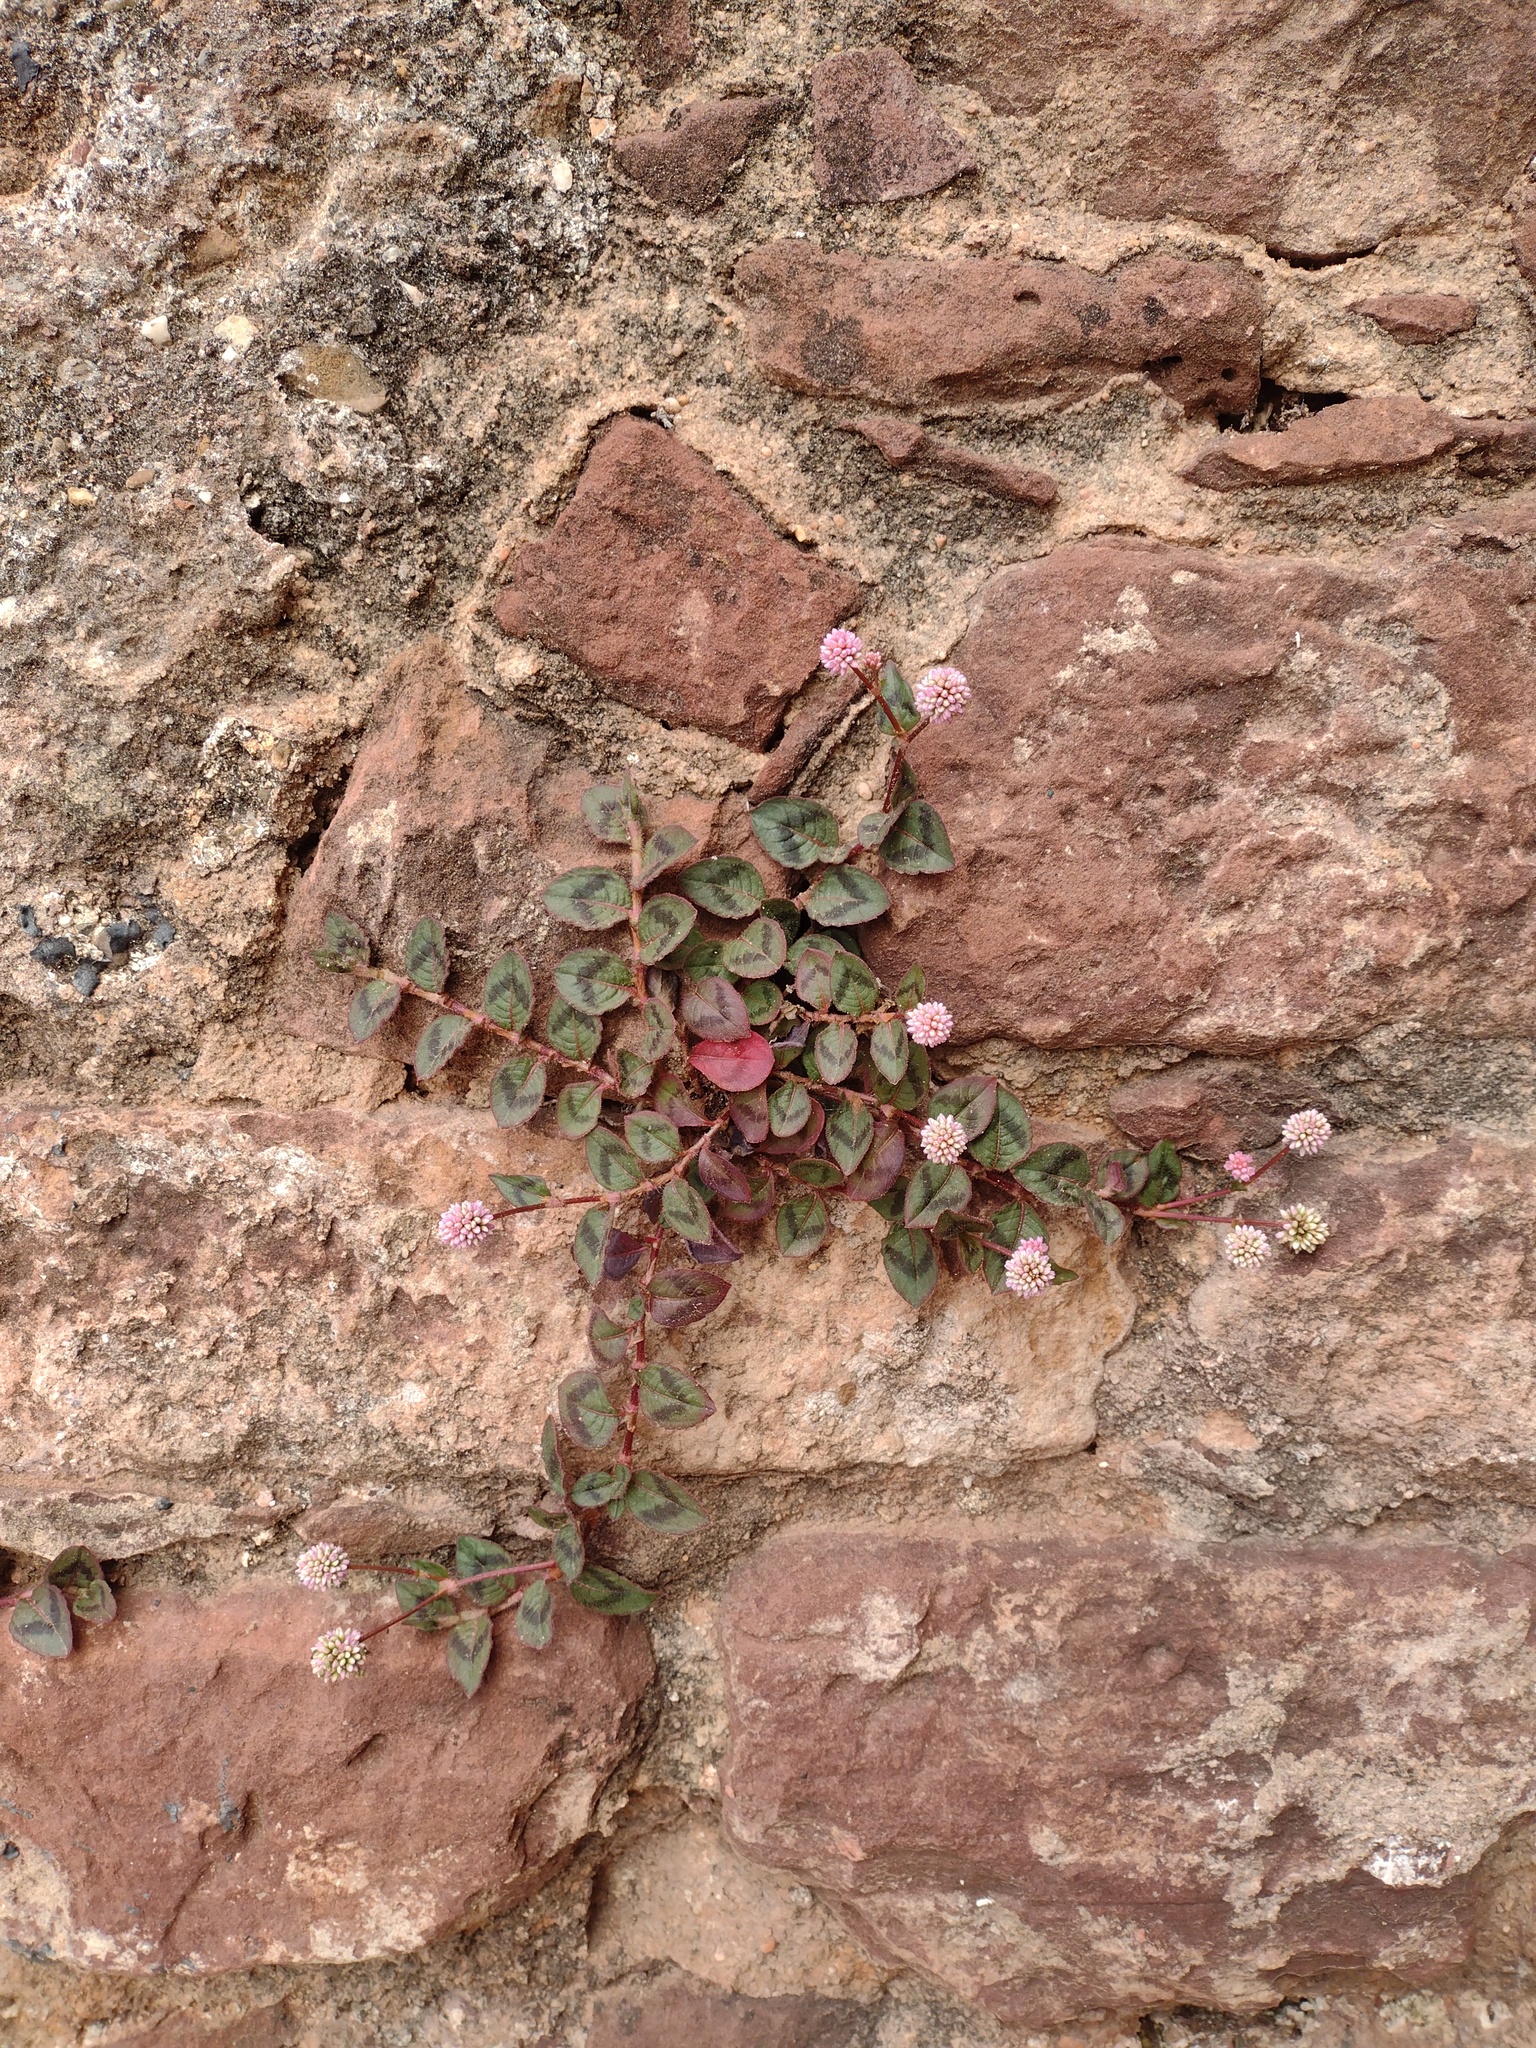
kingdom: Plantae
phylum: Tracheophyta
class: Magnoliopsida
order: Caryophyllales
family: Polygonaceae
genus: Persicaria
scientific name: Persicaria capitata
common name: Pinkhead smartweed
